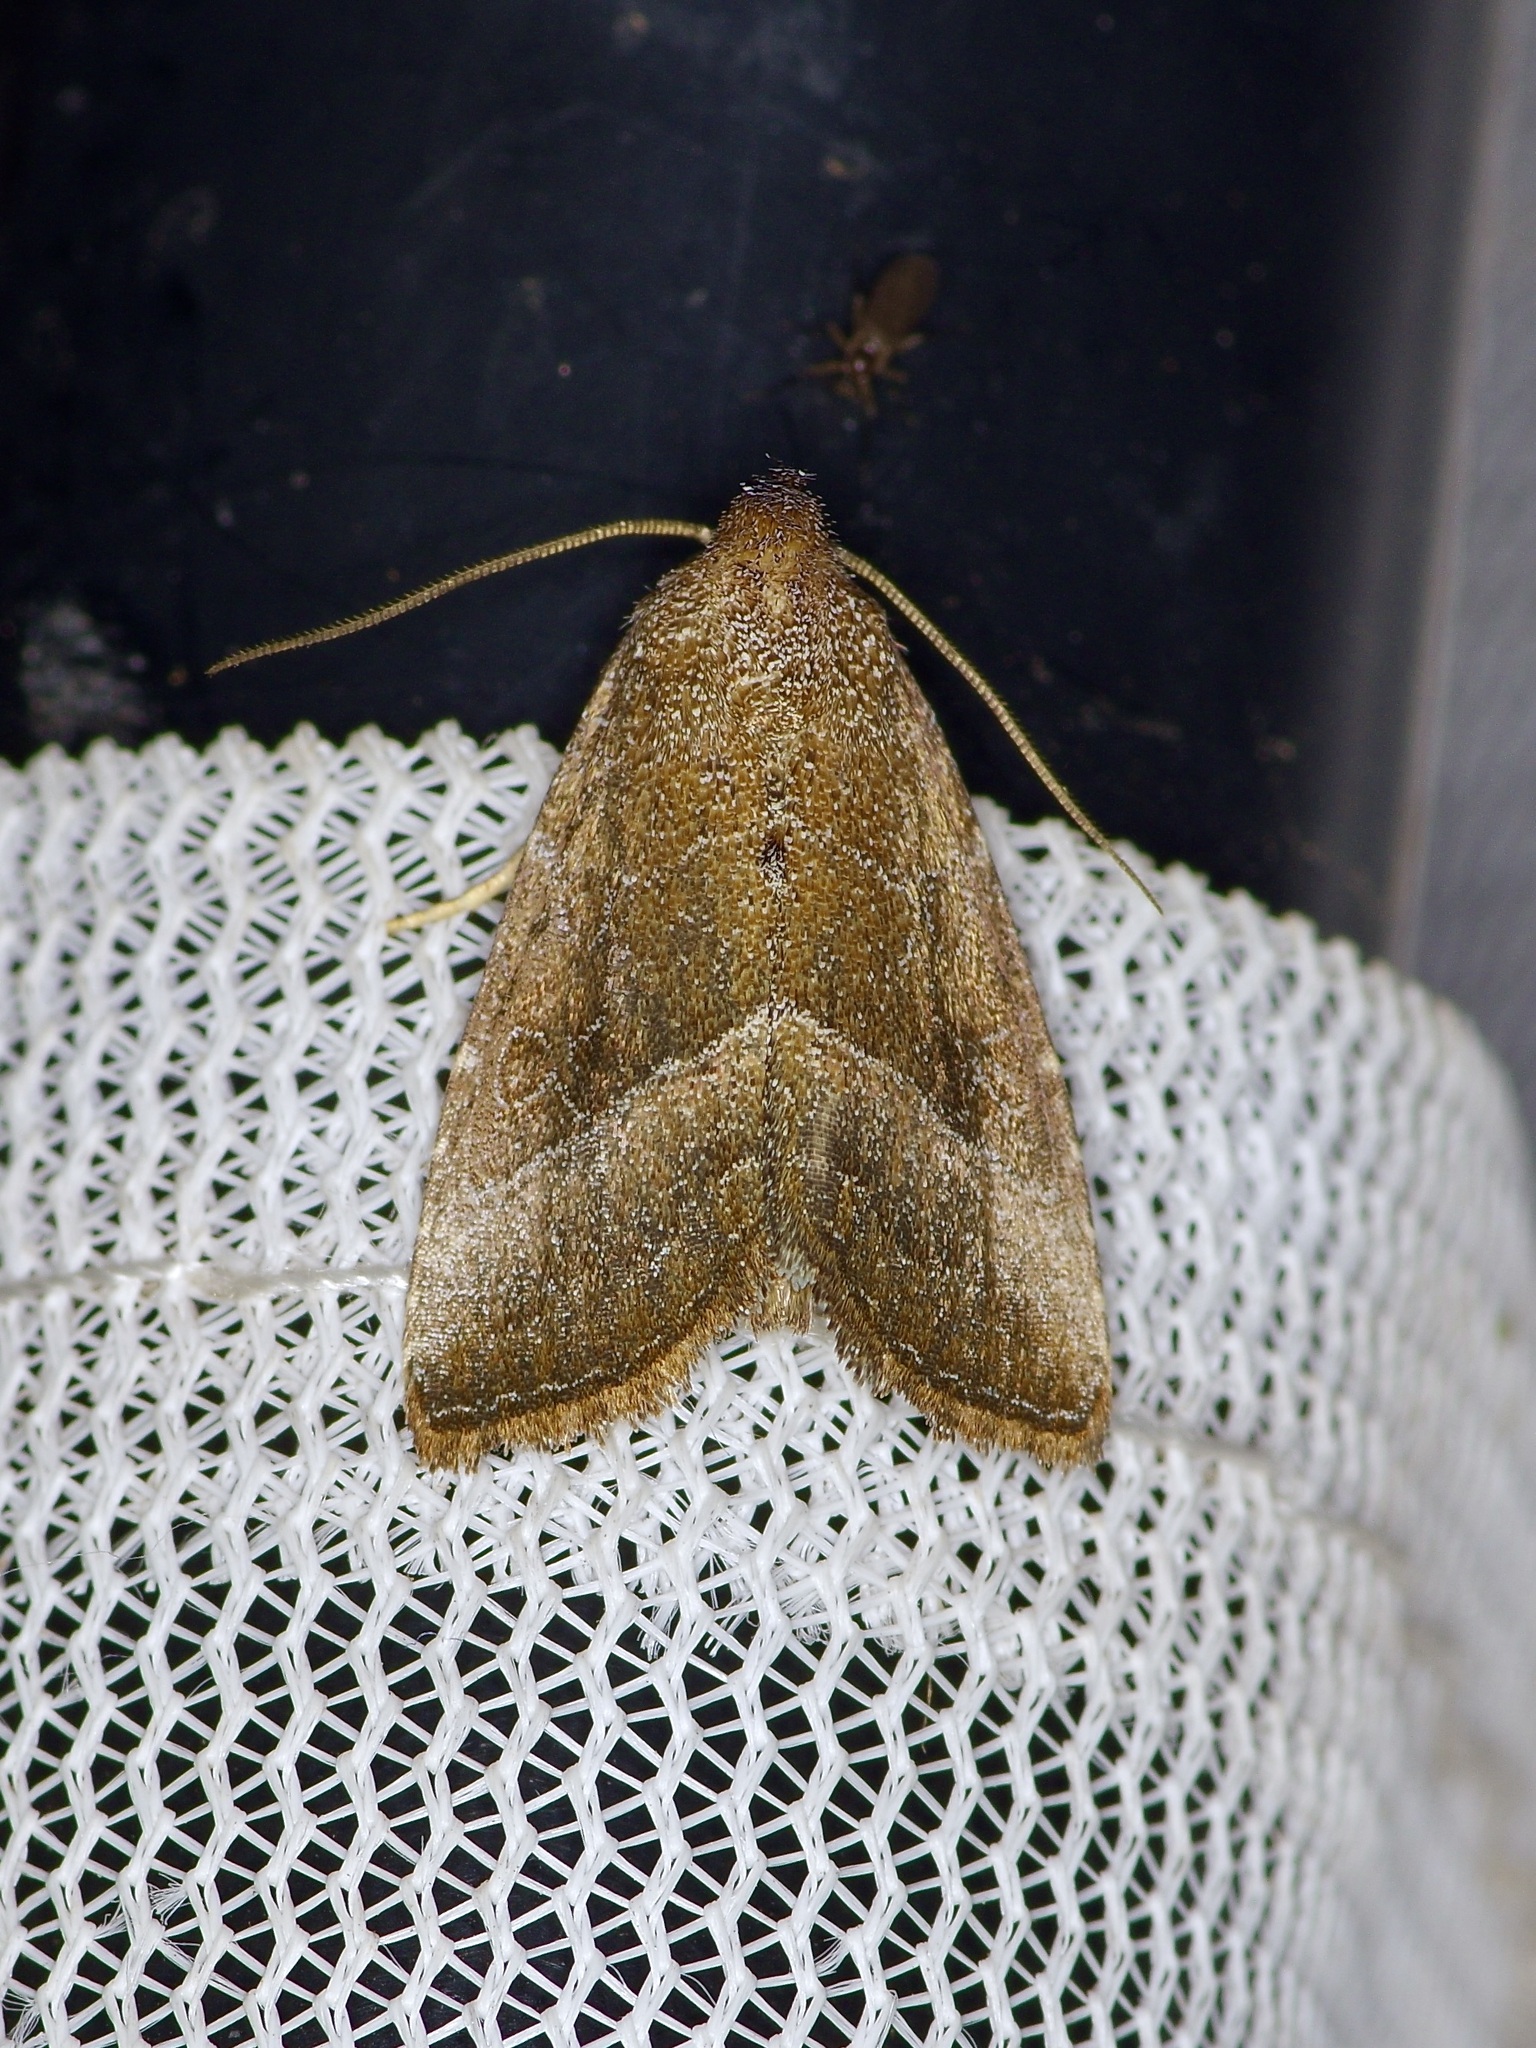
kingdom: Animalia
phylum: Arthropoda
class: Insecta
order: Lepidoptera
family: Noctuidae
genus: Ogdoconta
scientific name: Ogdoconta cinereola
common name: Common pinkband
